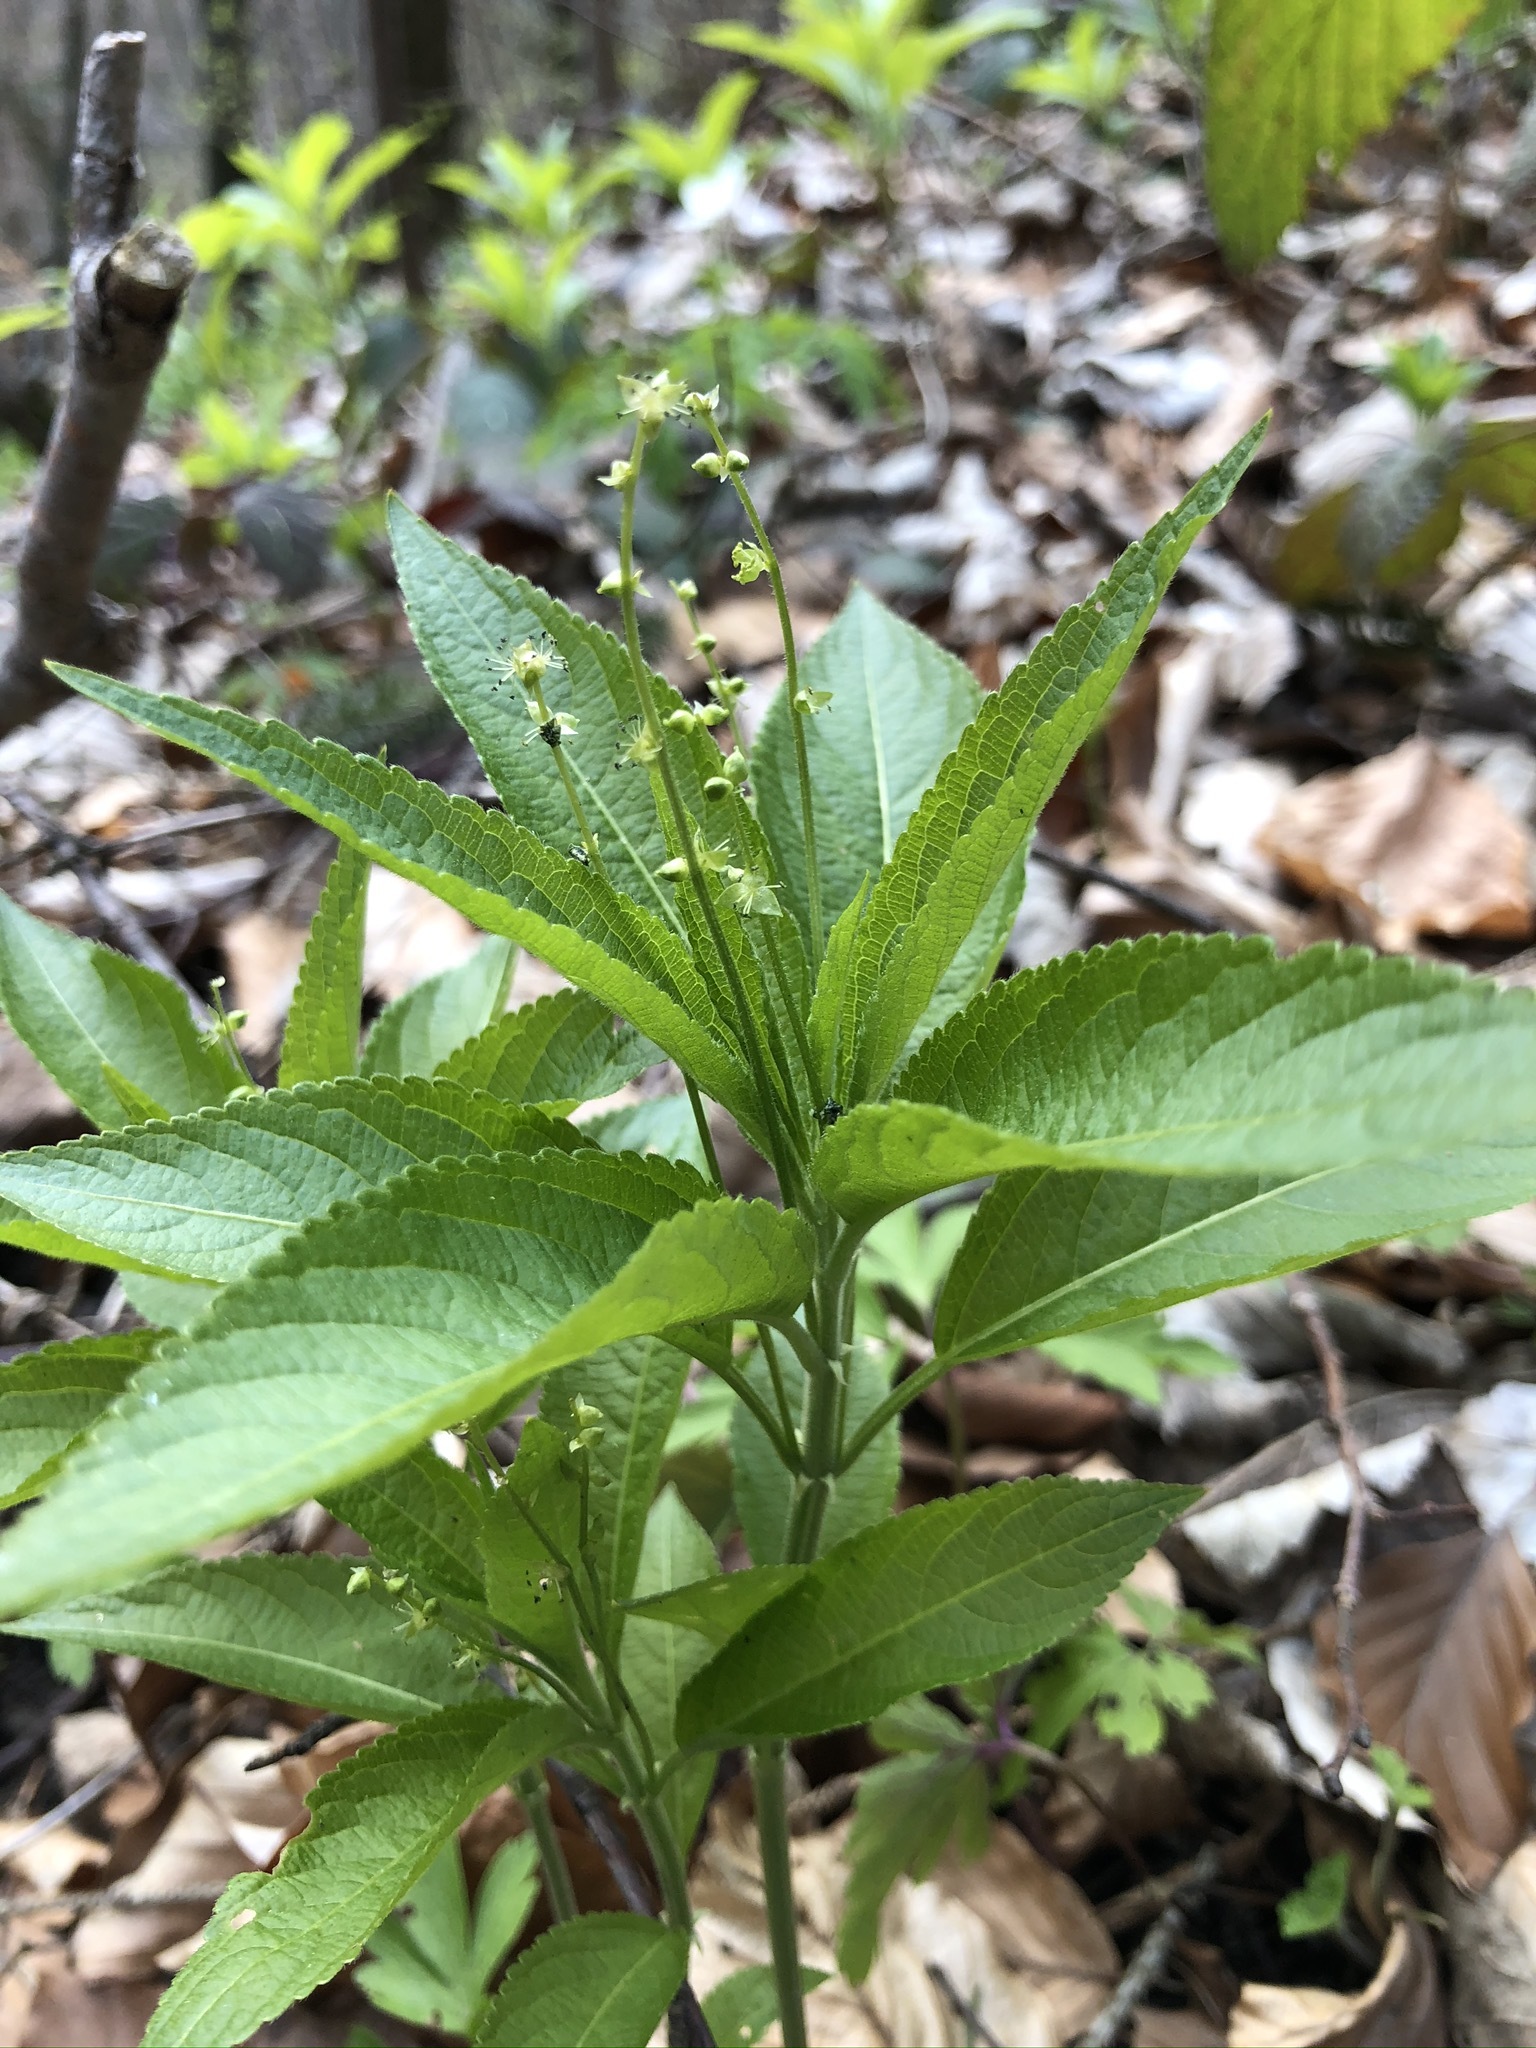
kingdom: Plantae
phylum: Tracheophyta
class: Magnoliopsida
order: Malpighiales
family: Euphorbiaceae
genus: Mercurialis
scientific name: Mercurialis perennis
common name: Dog mercury
